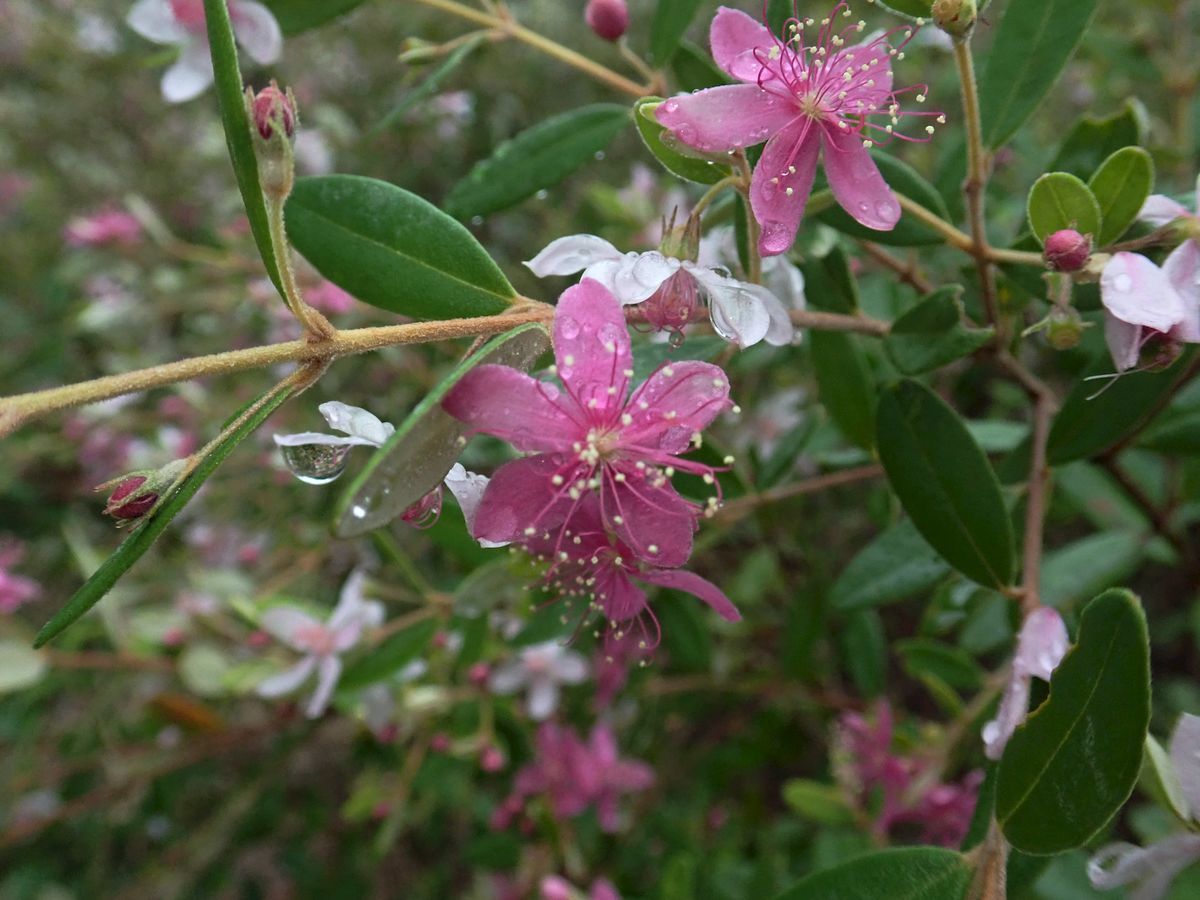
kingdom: Plantae
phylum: Tracheophyta
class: Magnoliopsida
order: Myrtales
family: Myrtaceae
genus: Lithomyrtus
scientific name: Lithomyrtus obtusa
